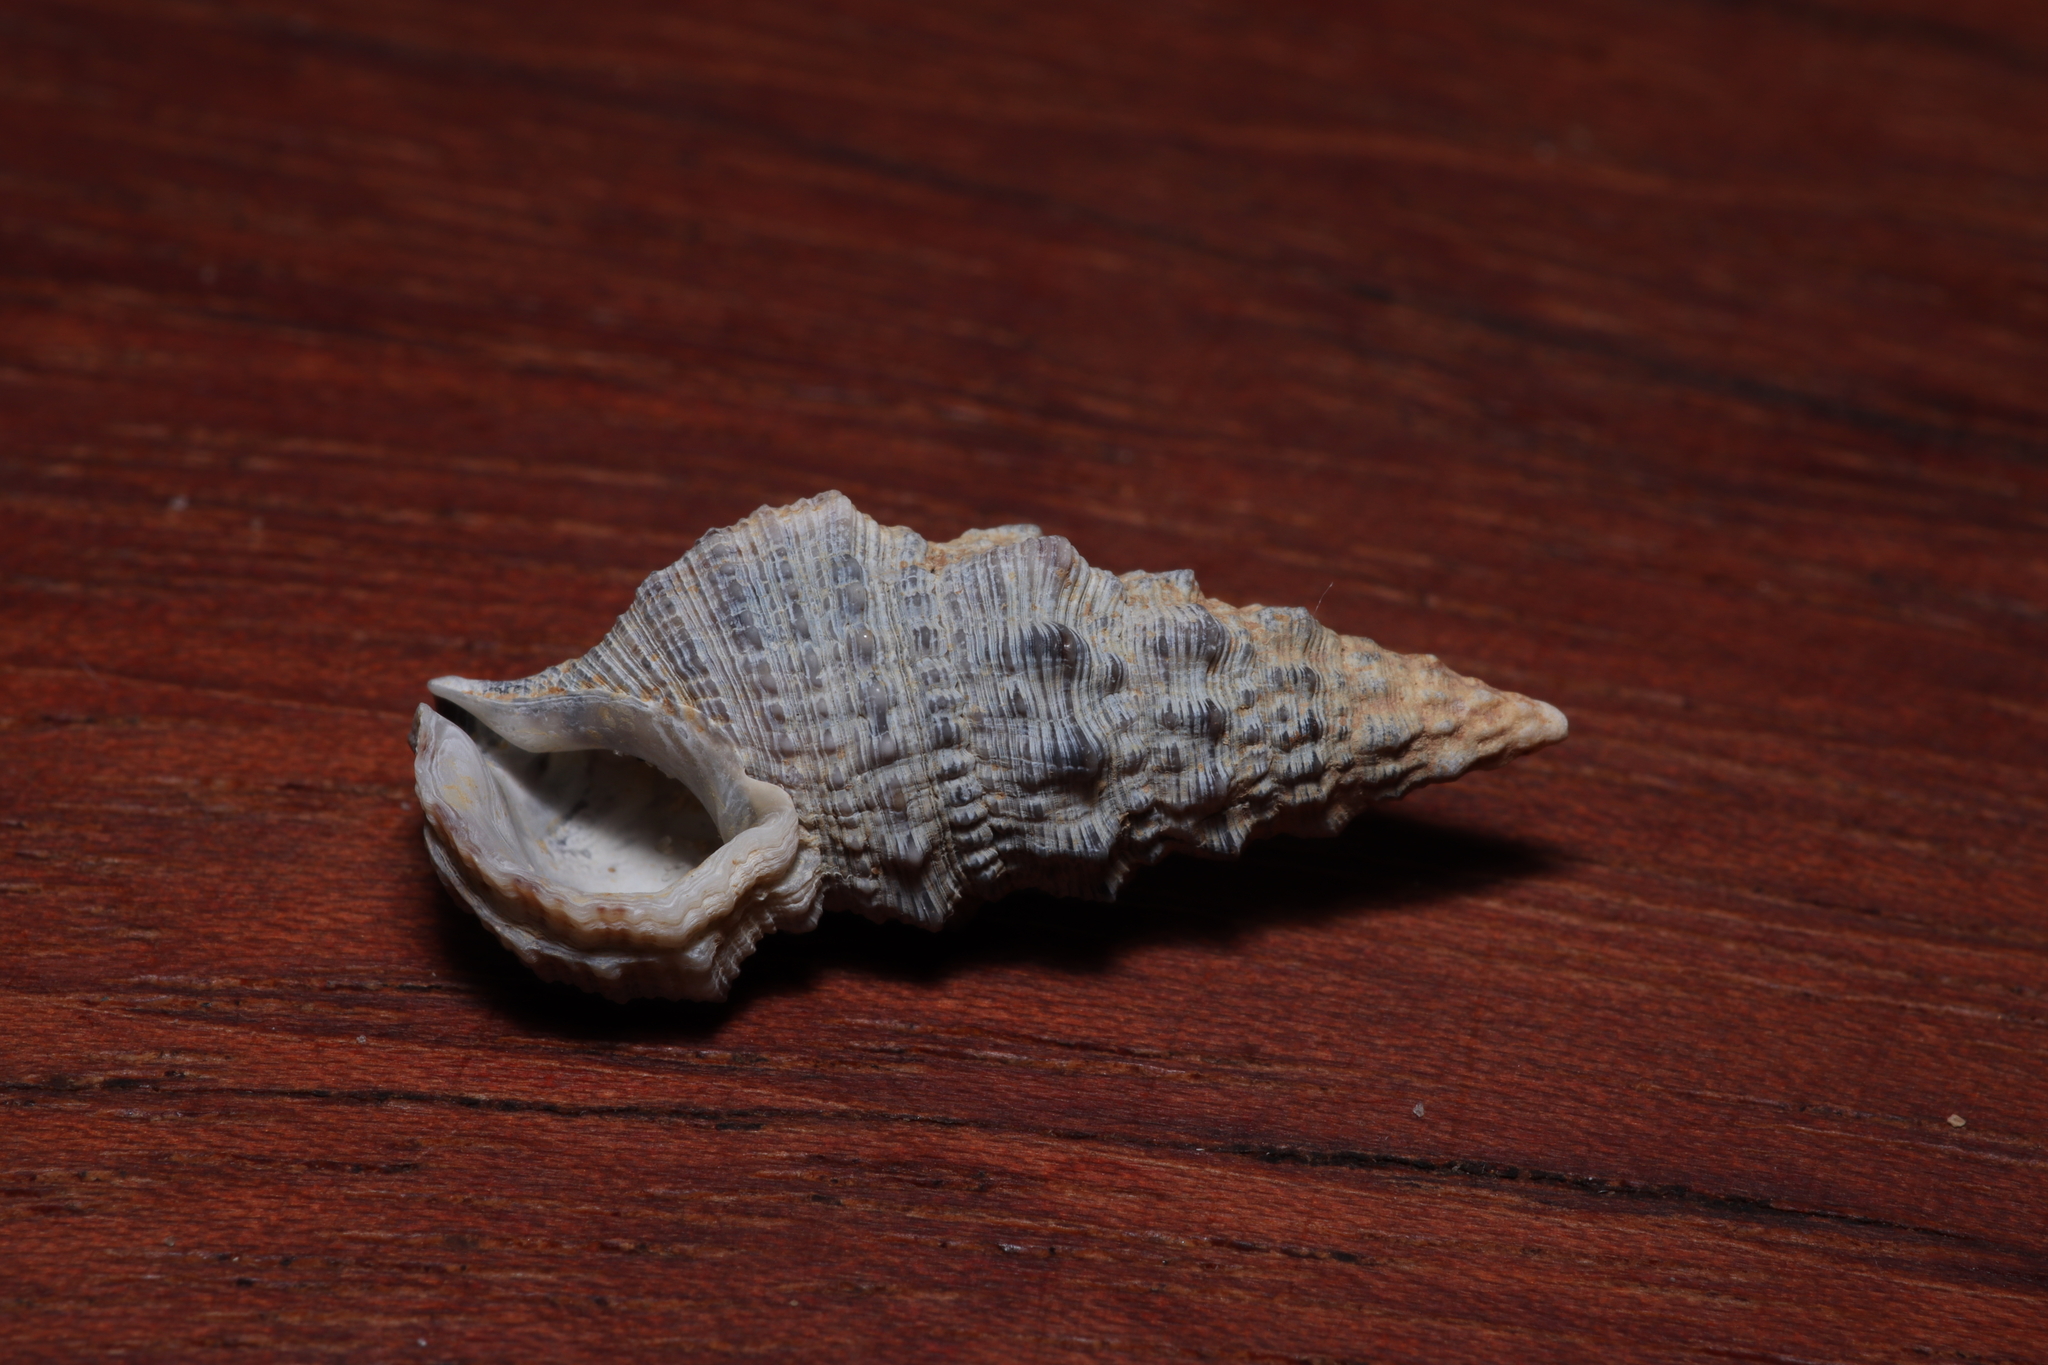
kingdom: Animalia
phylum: Mollusca
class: Gastropoda
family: Cerithiidae
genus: Cerithium
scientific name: Cerithium atratum
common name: Dark cerith
